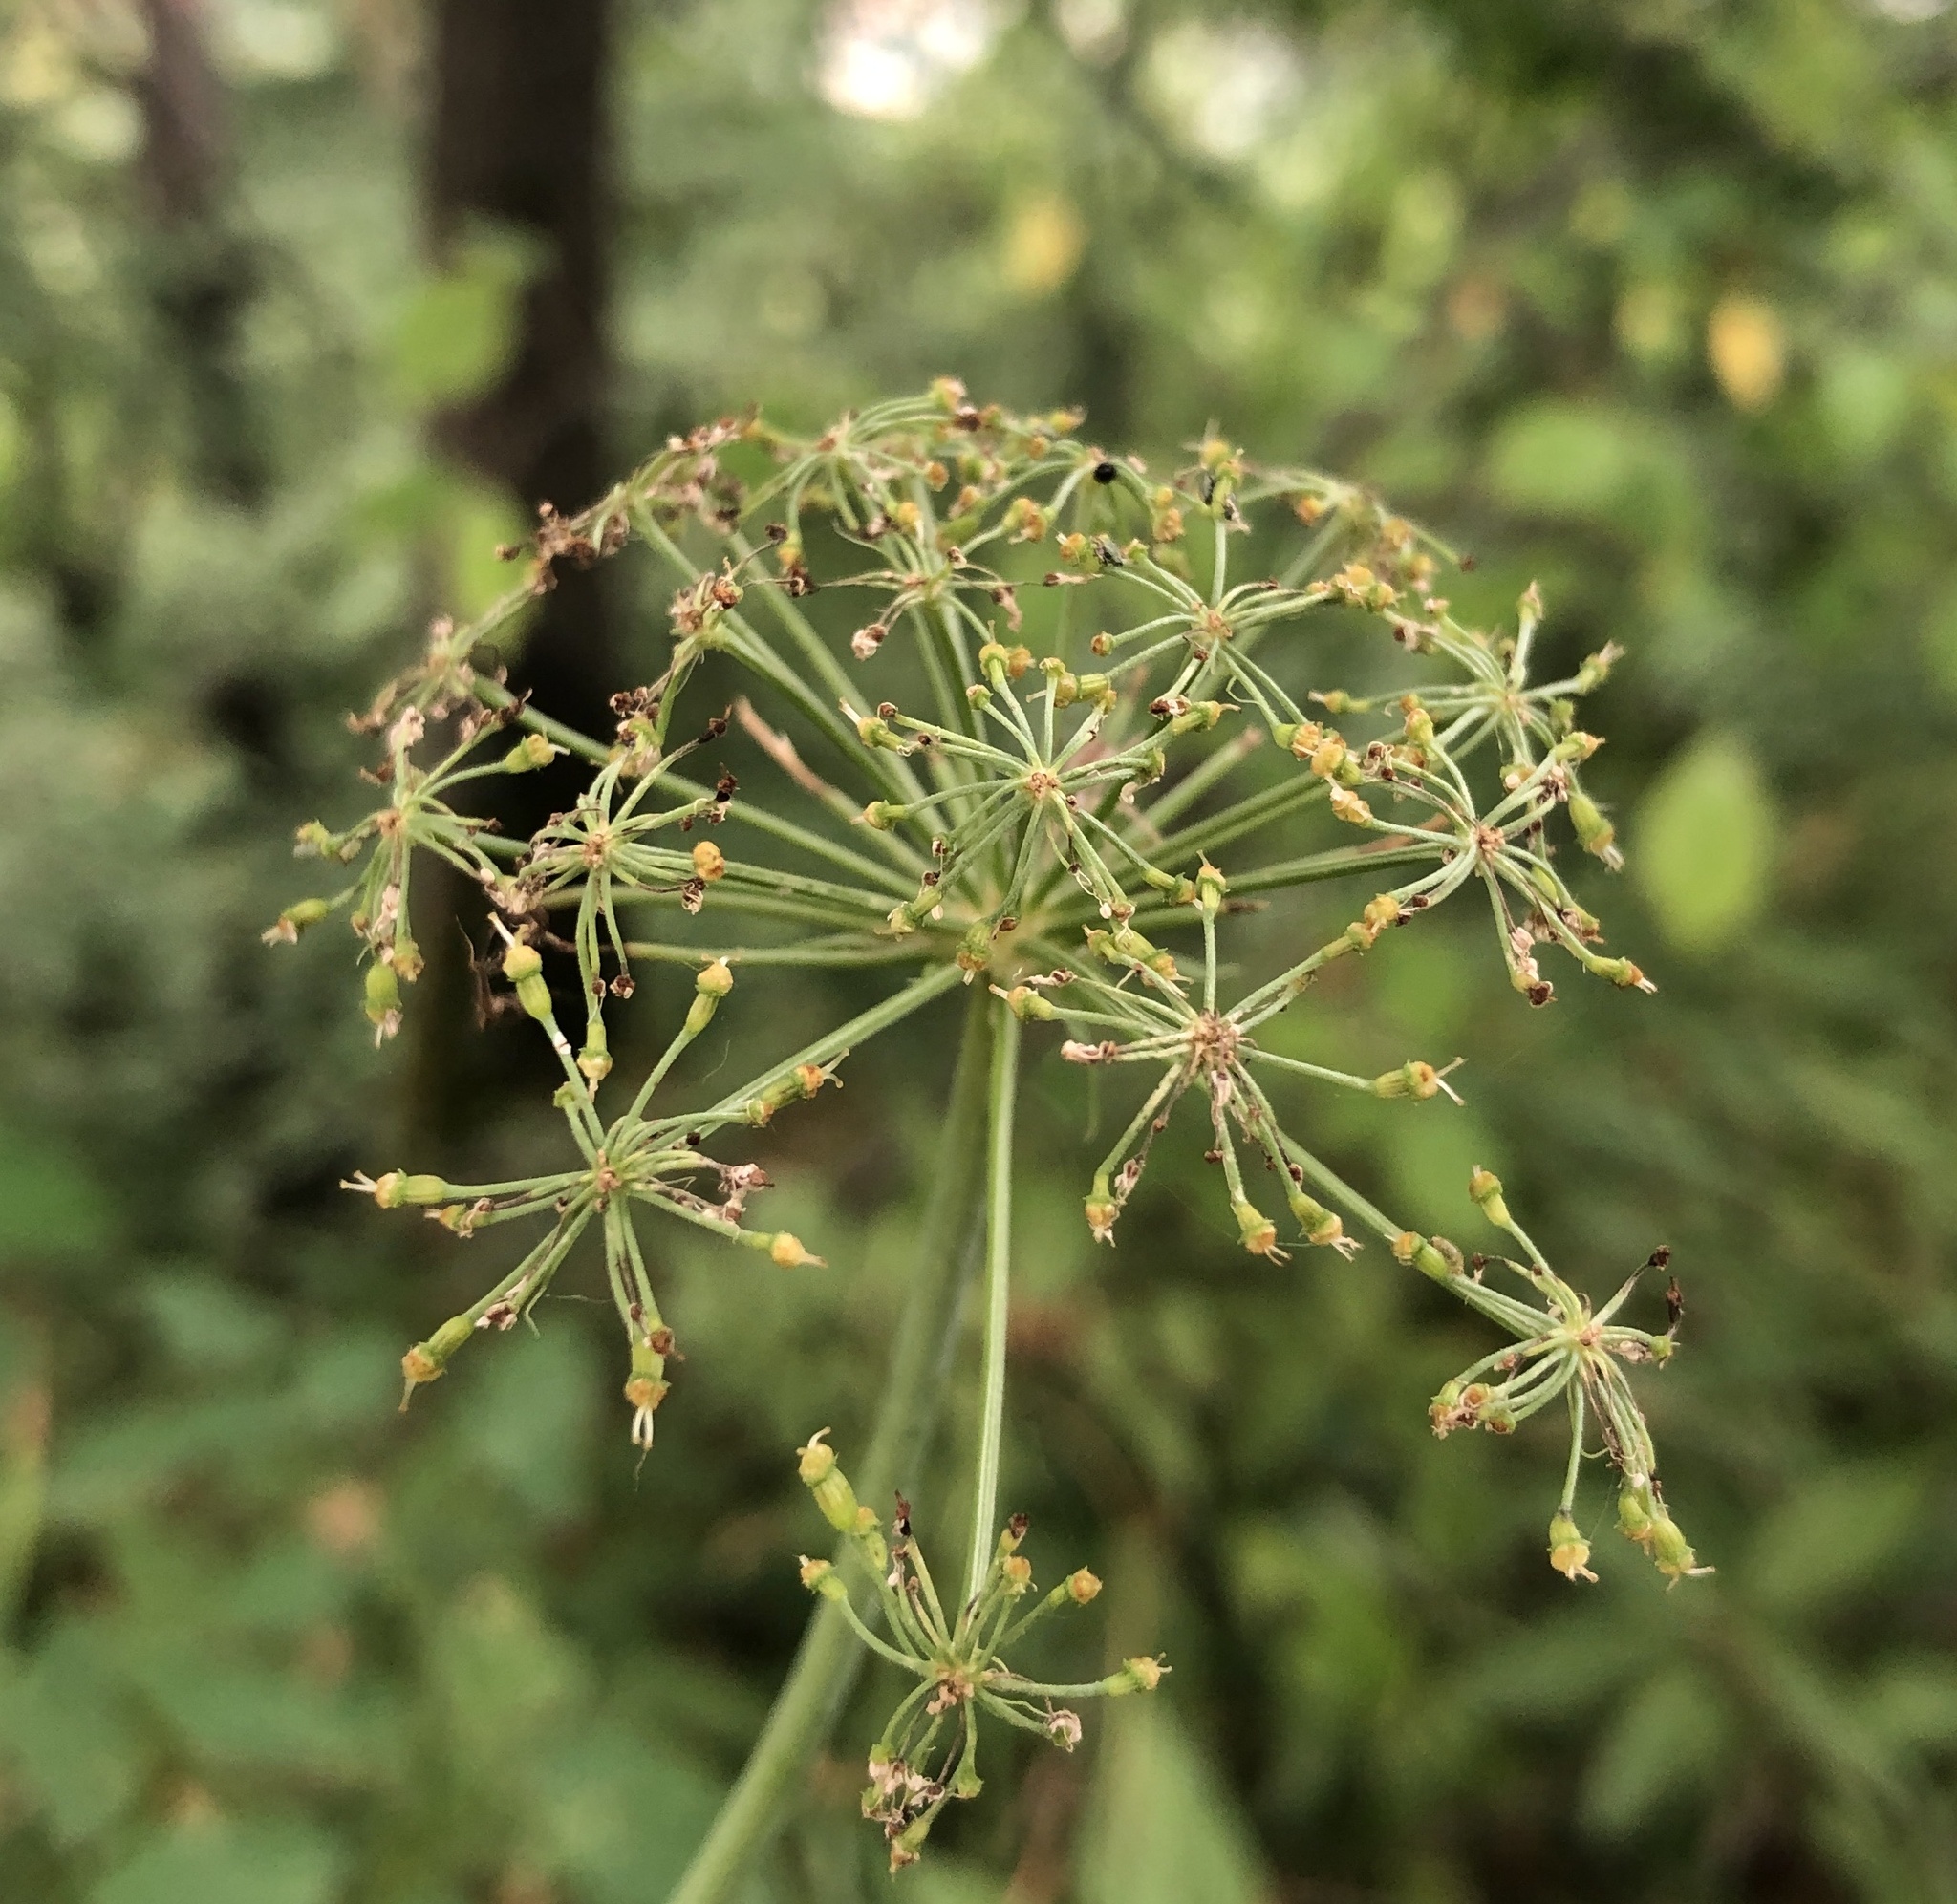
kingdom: Plantae
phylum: Tracheophyta
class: Magnoliopsida
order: Apiales
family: Apiaceae
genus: Laserpitium
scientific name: Laserpitium latifolium
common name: Broadleaf sermountain
